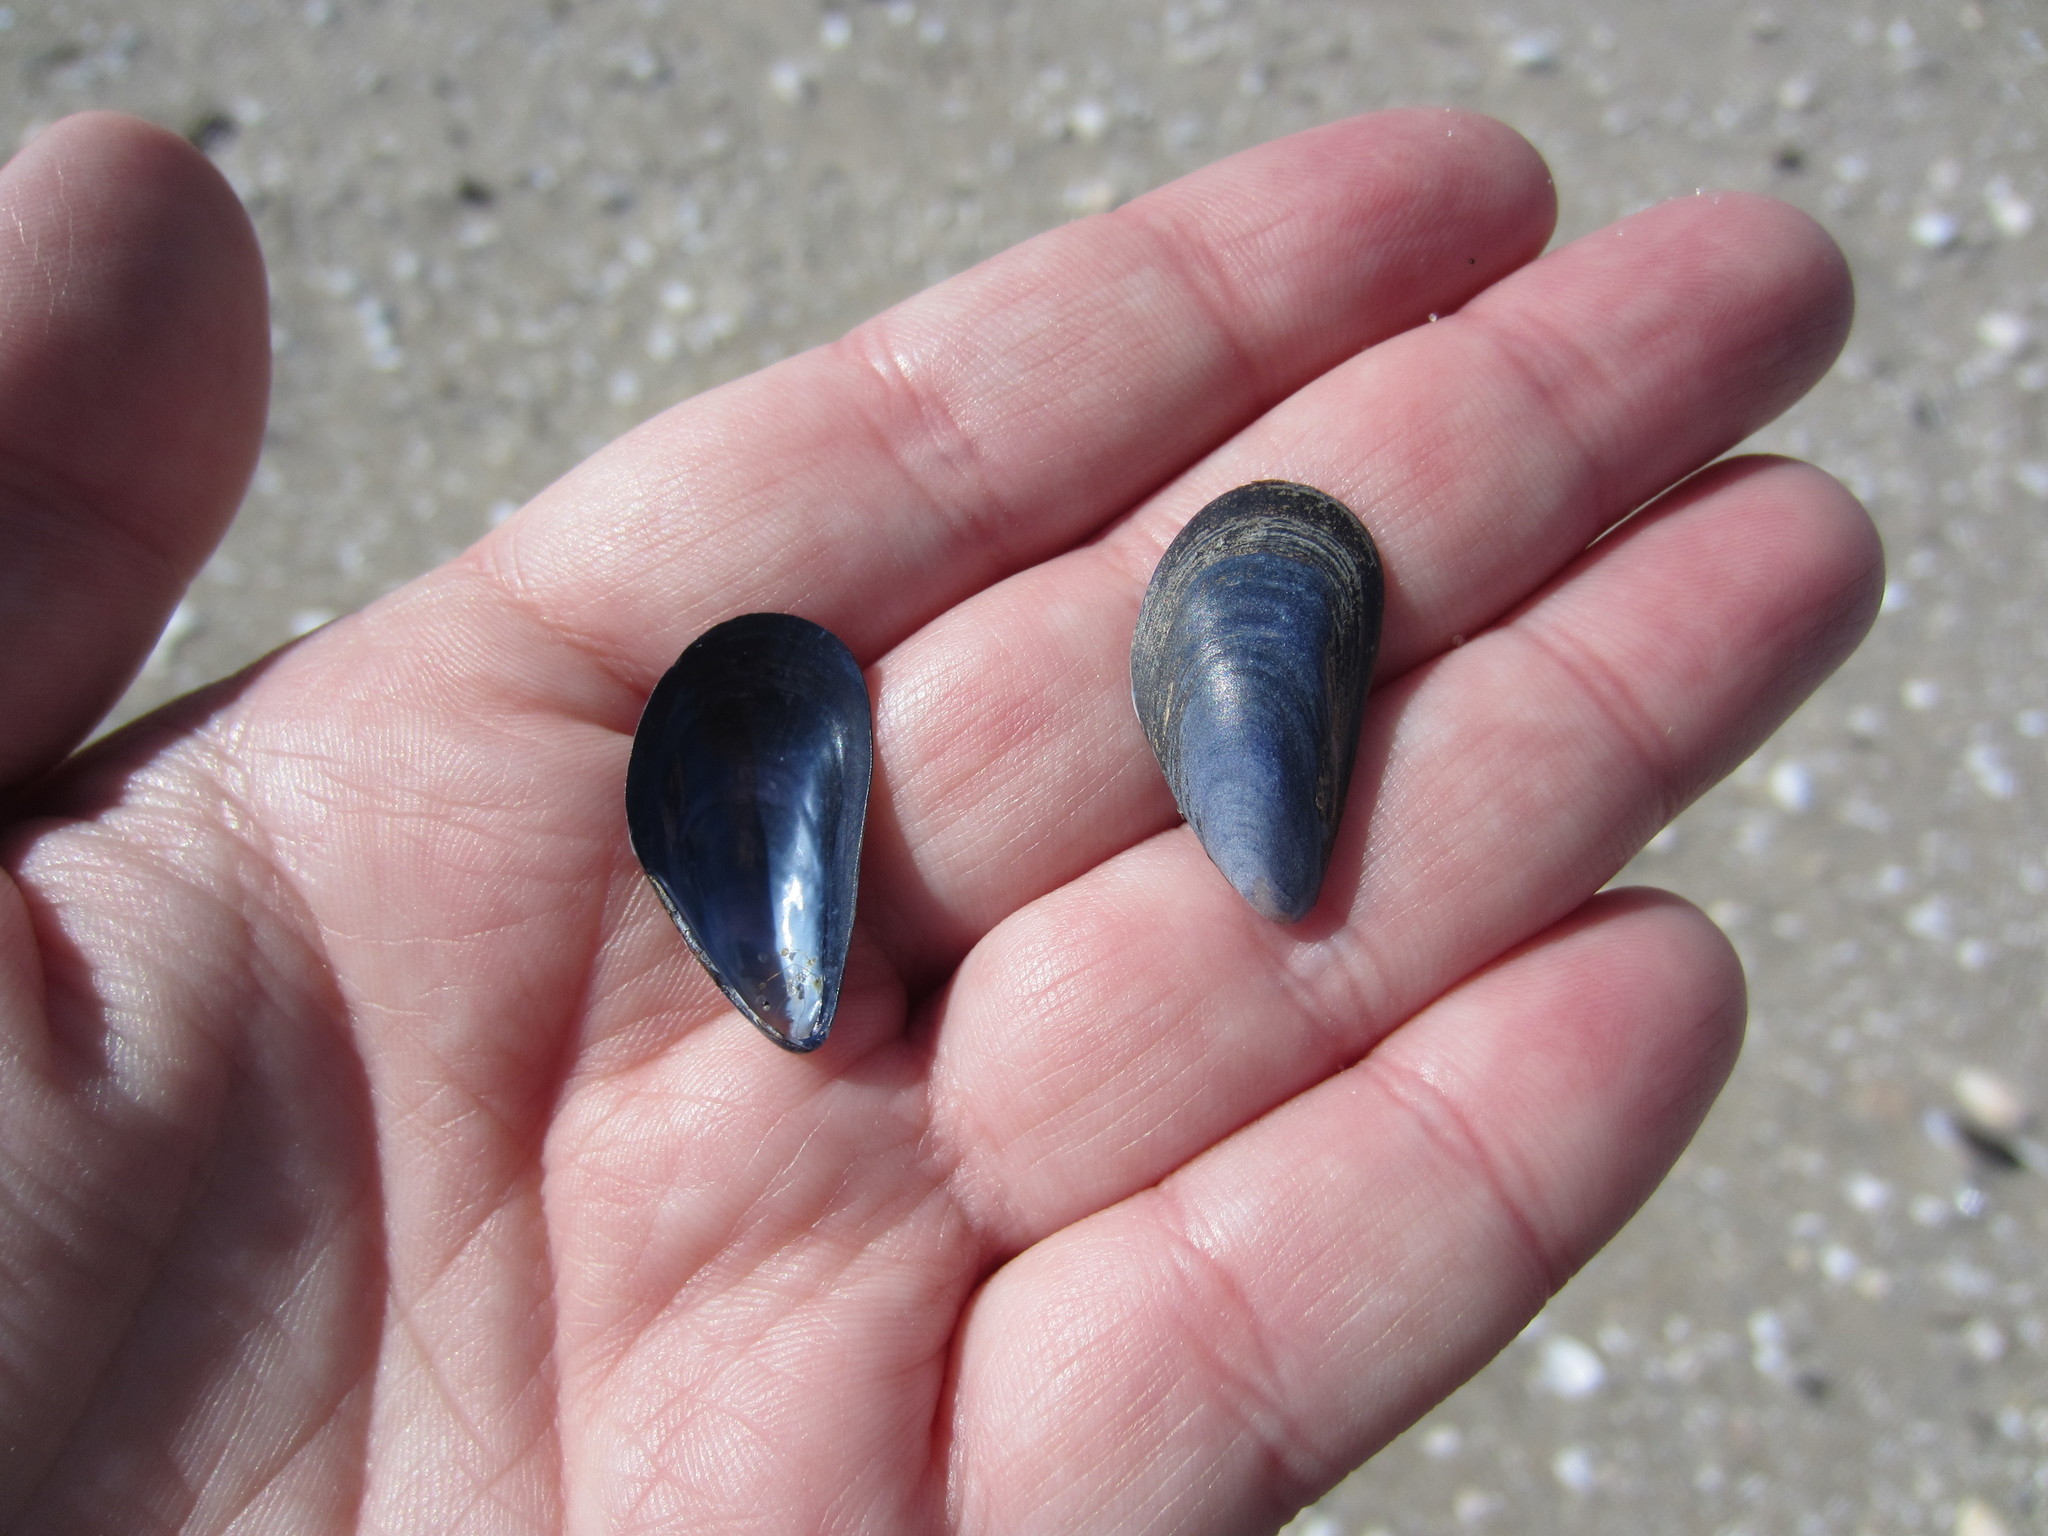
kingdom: Animalia
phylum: Mollusca
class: Bivalvia
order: Mytilida
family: Mytilidae
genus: Mytilus
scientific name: Mytilus edulis
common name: Blue mussel
